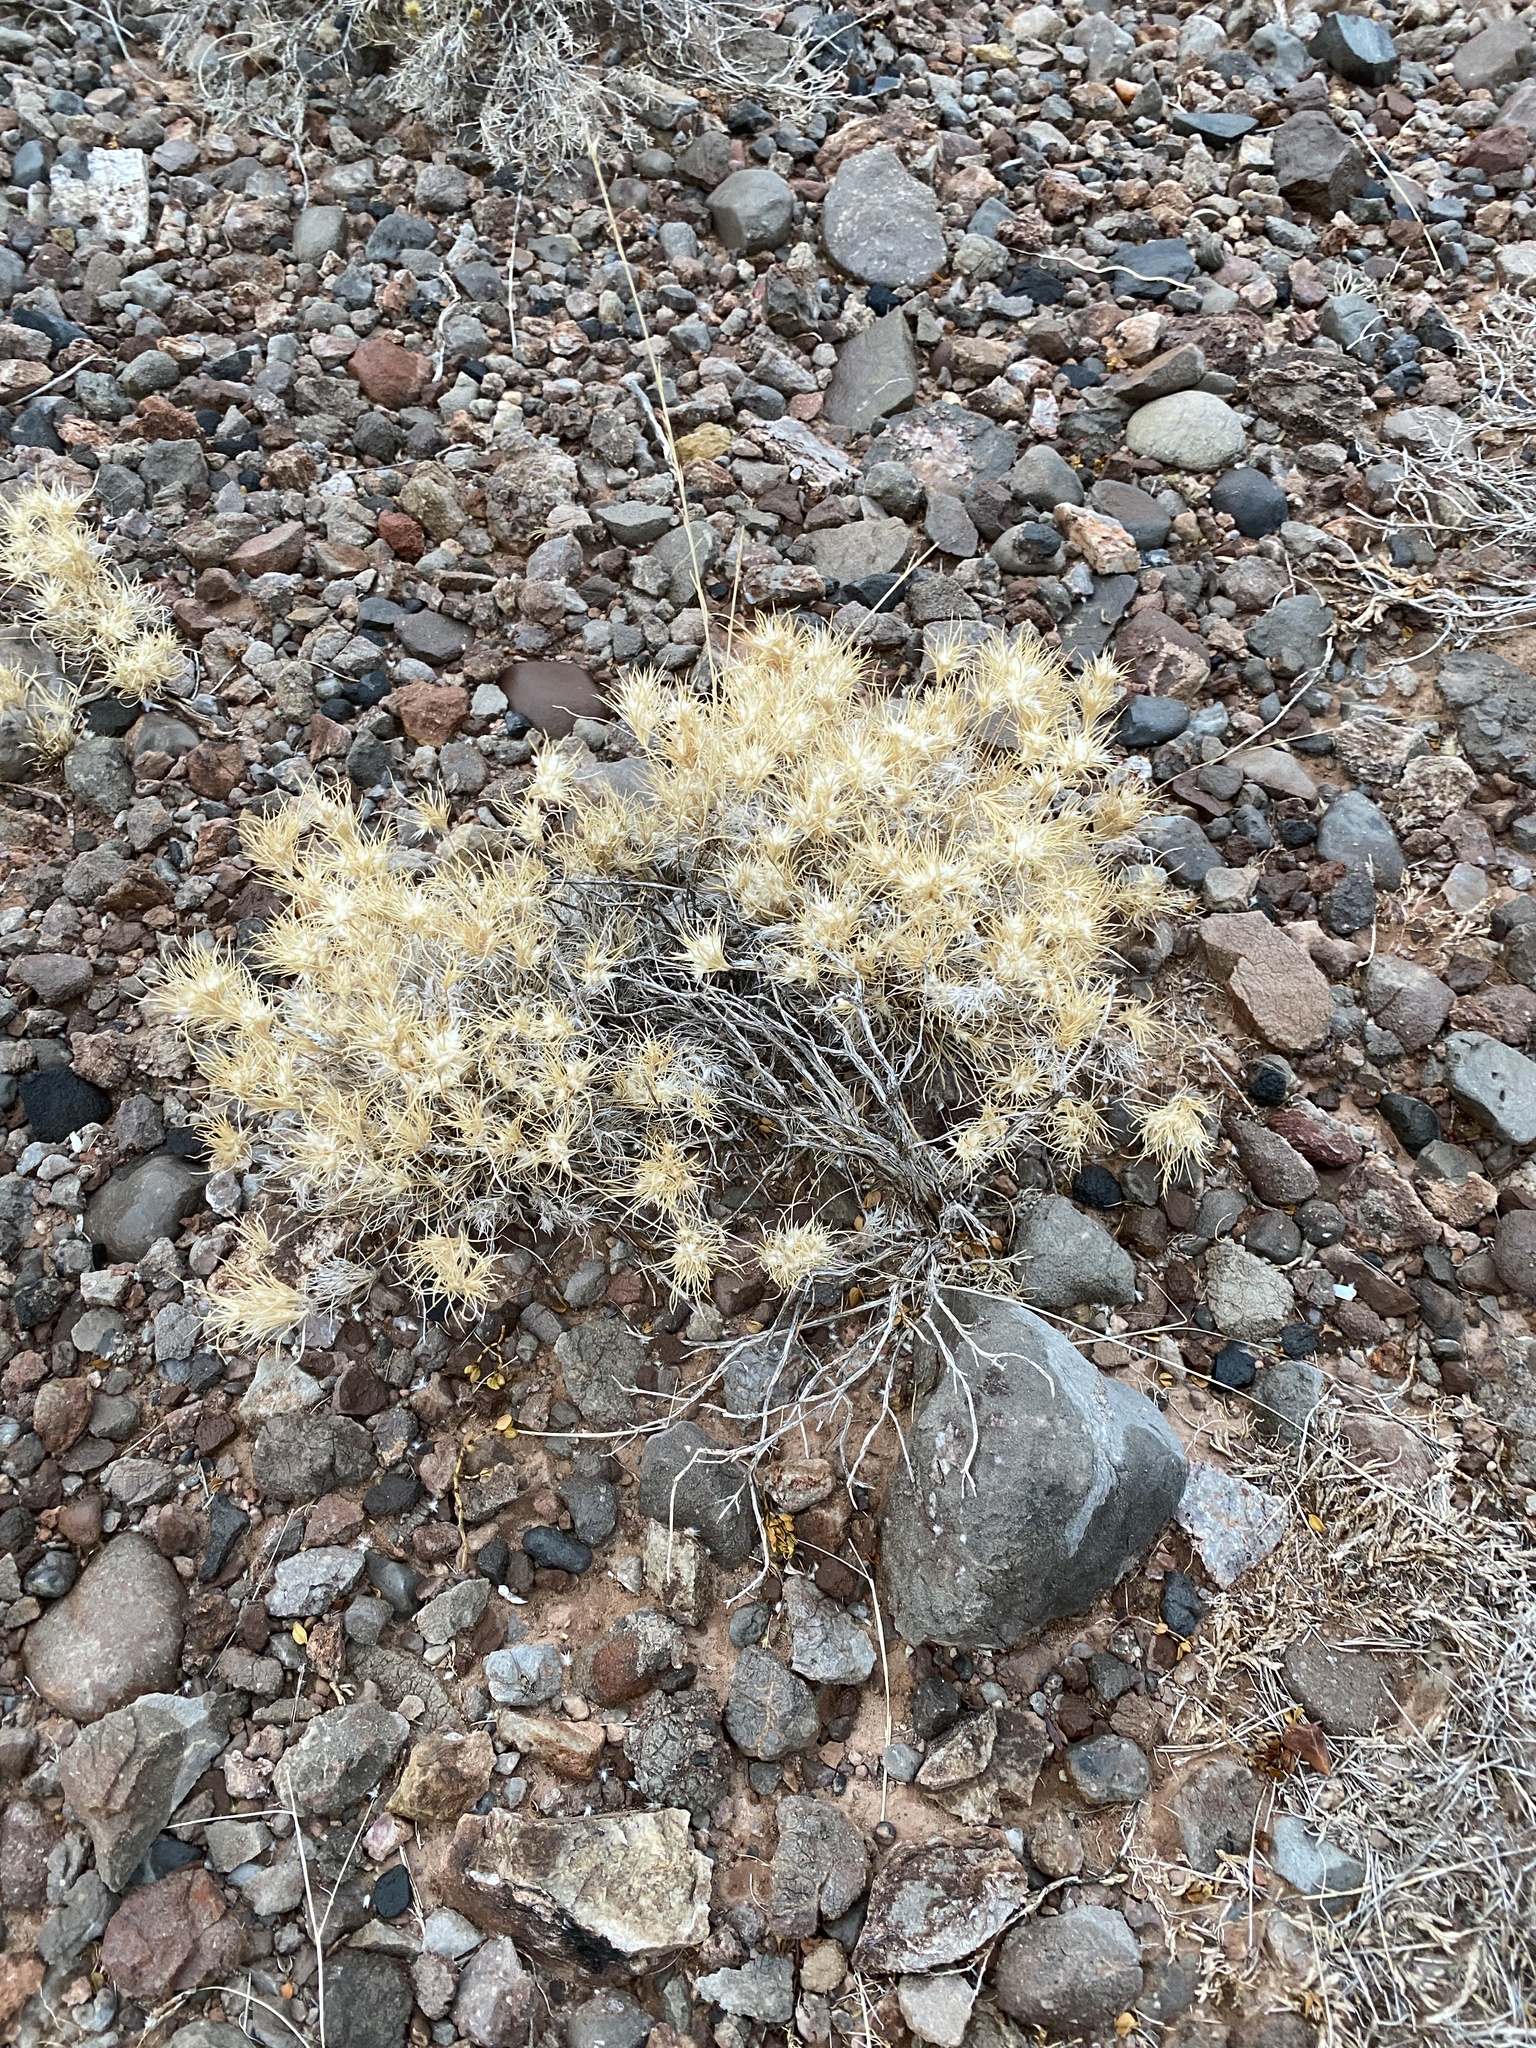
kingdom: Plantae
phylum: Tracheophyta
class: Liliopsida
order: Poales
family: Poaceae
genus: Dasyochloa
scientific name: Dasyochloa pulchella
